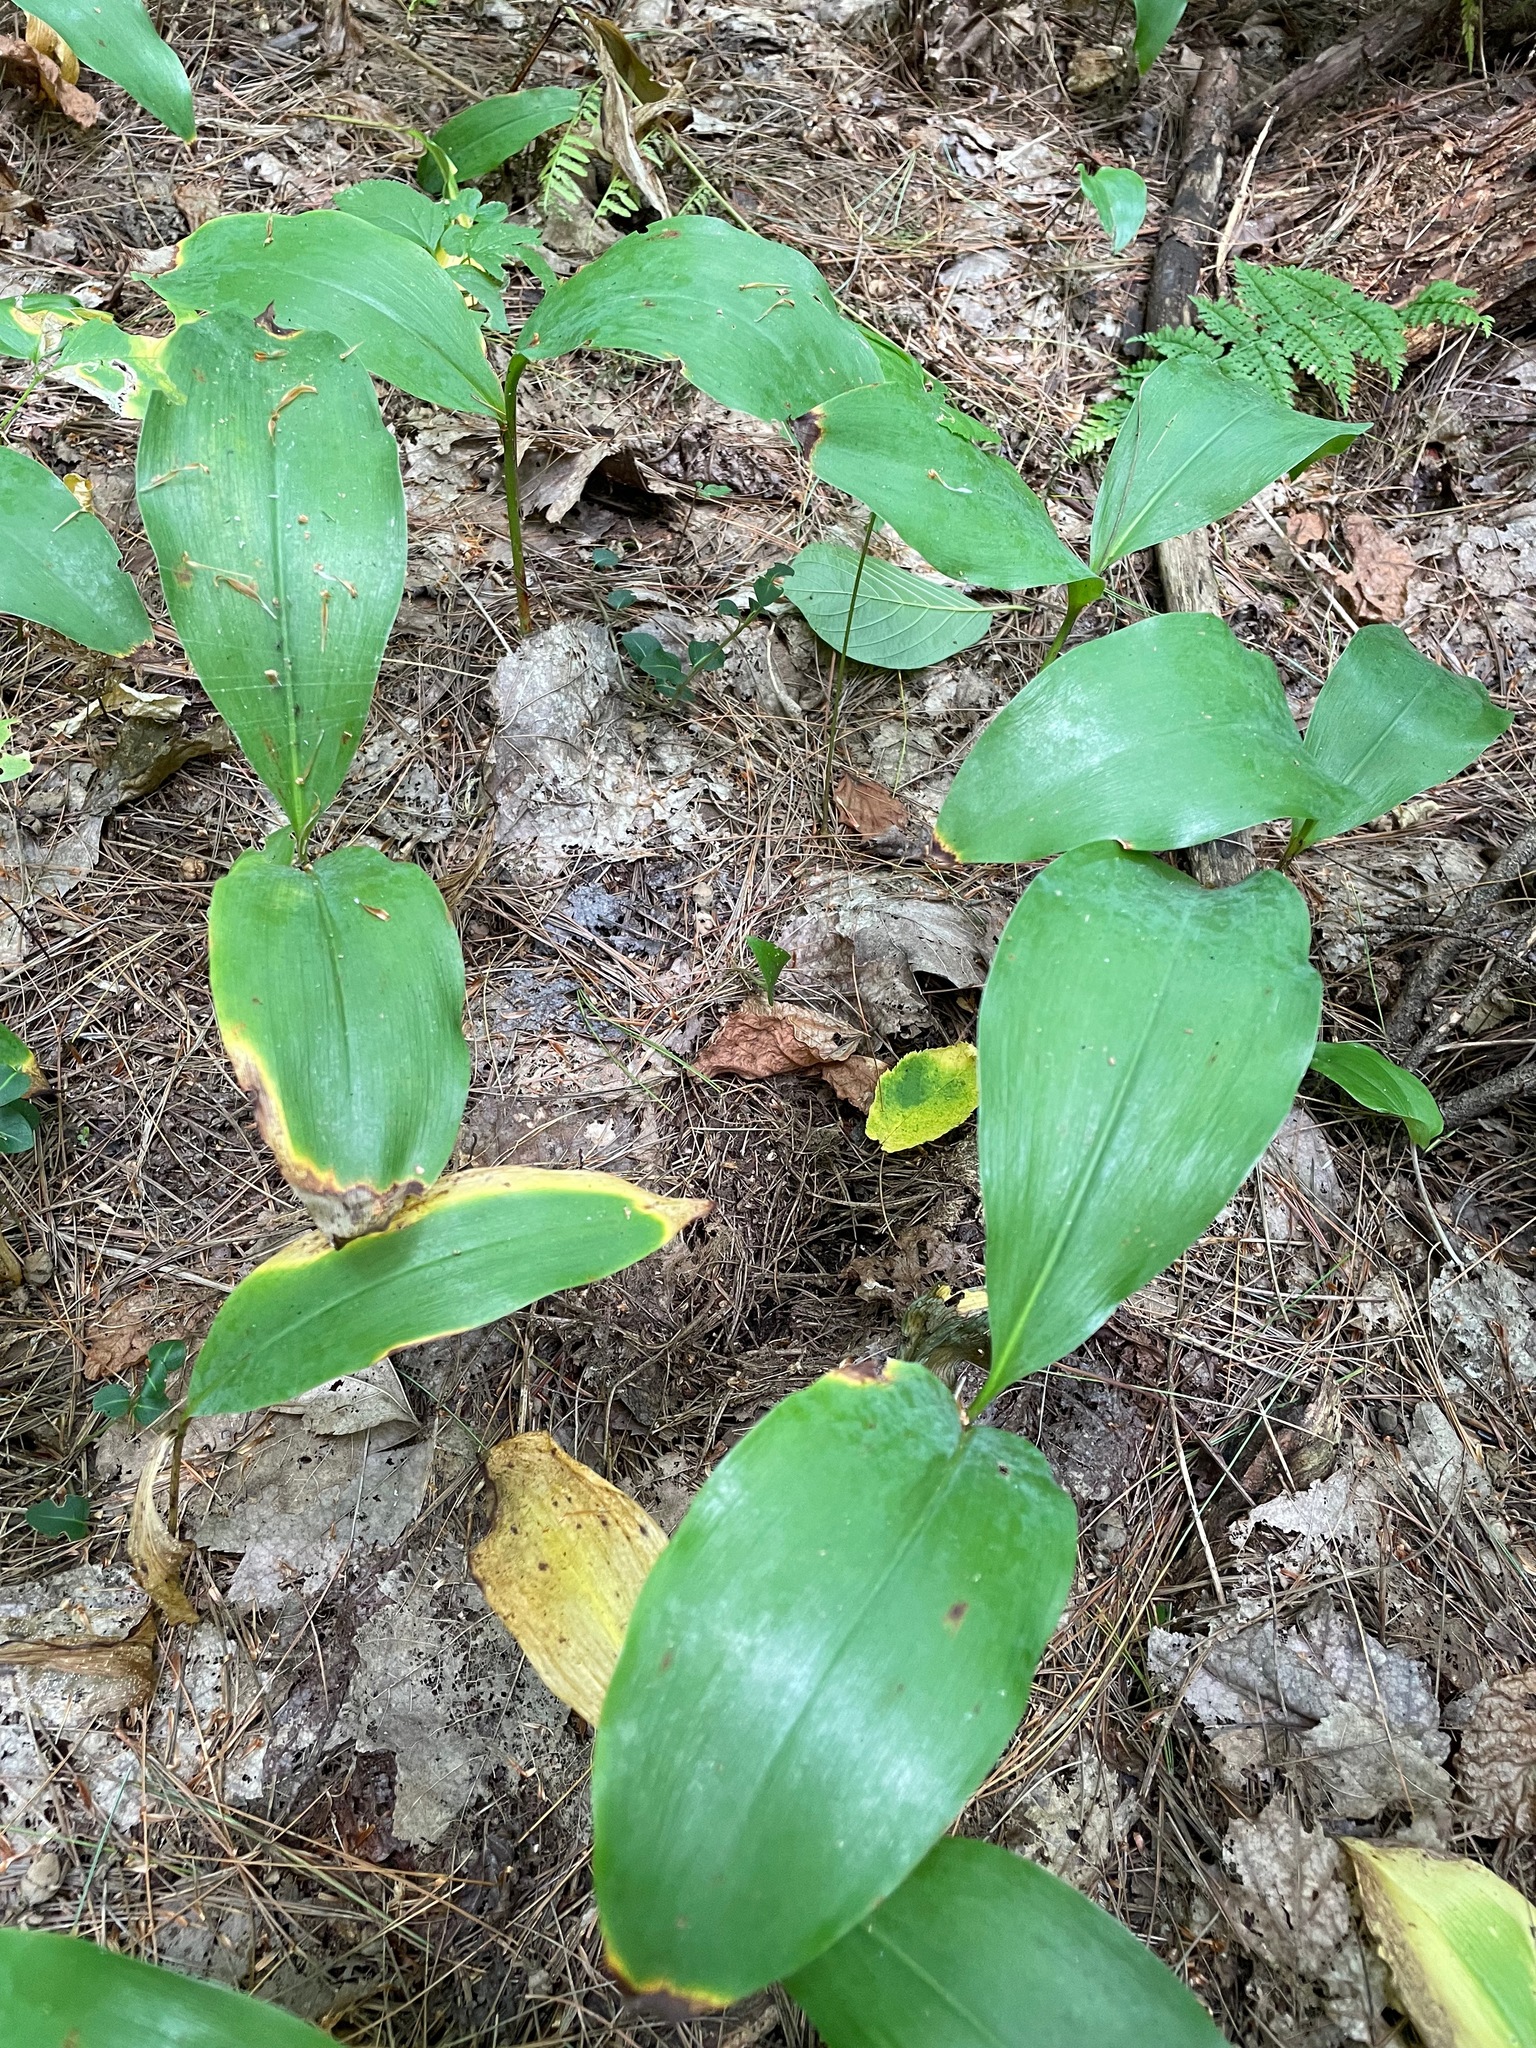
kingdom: Plantae
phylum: Tracheophyta
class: Liliopsida
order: Asparagales
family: Asparagaceae
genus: Convallaria
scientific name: Convallaria majalis
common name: Lily-of-the-valley
